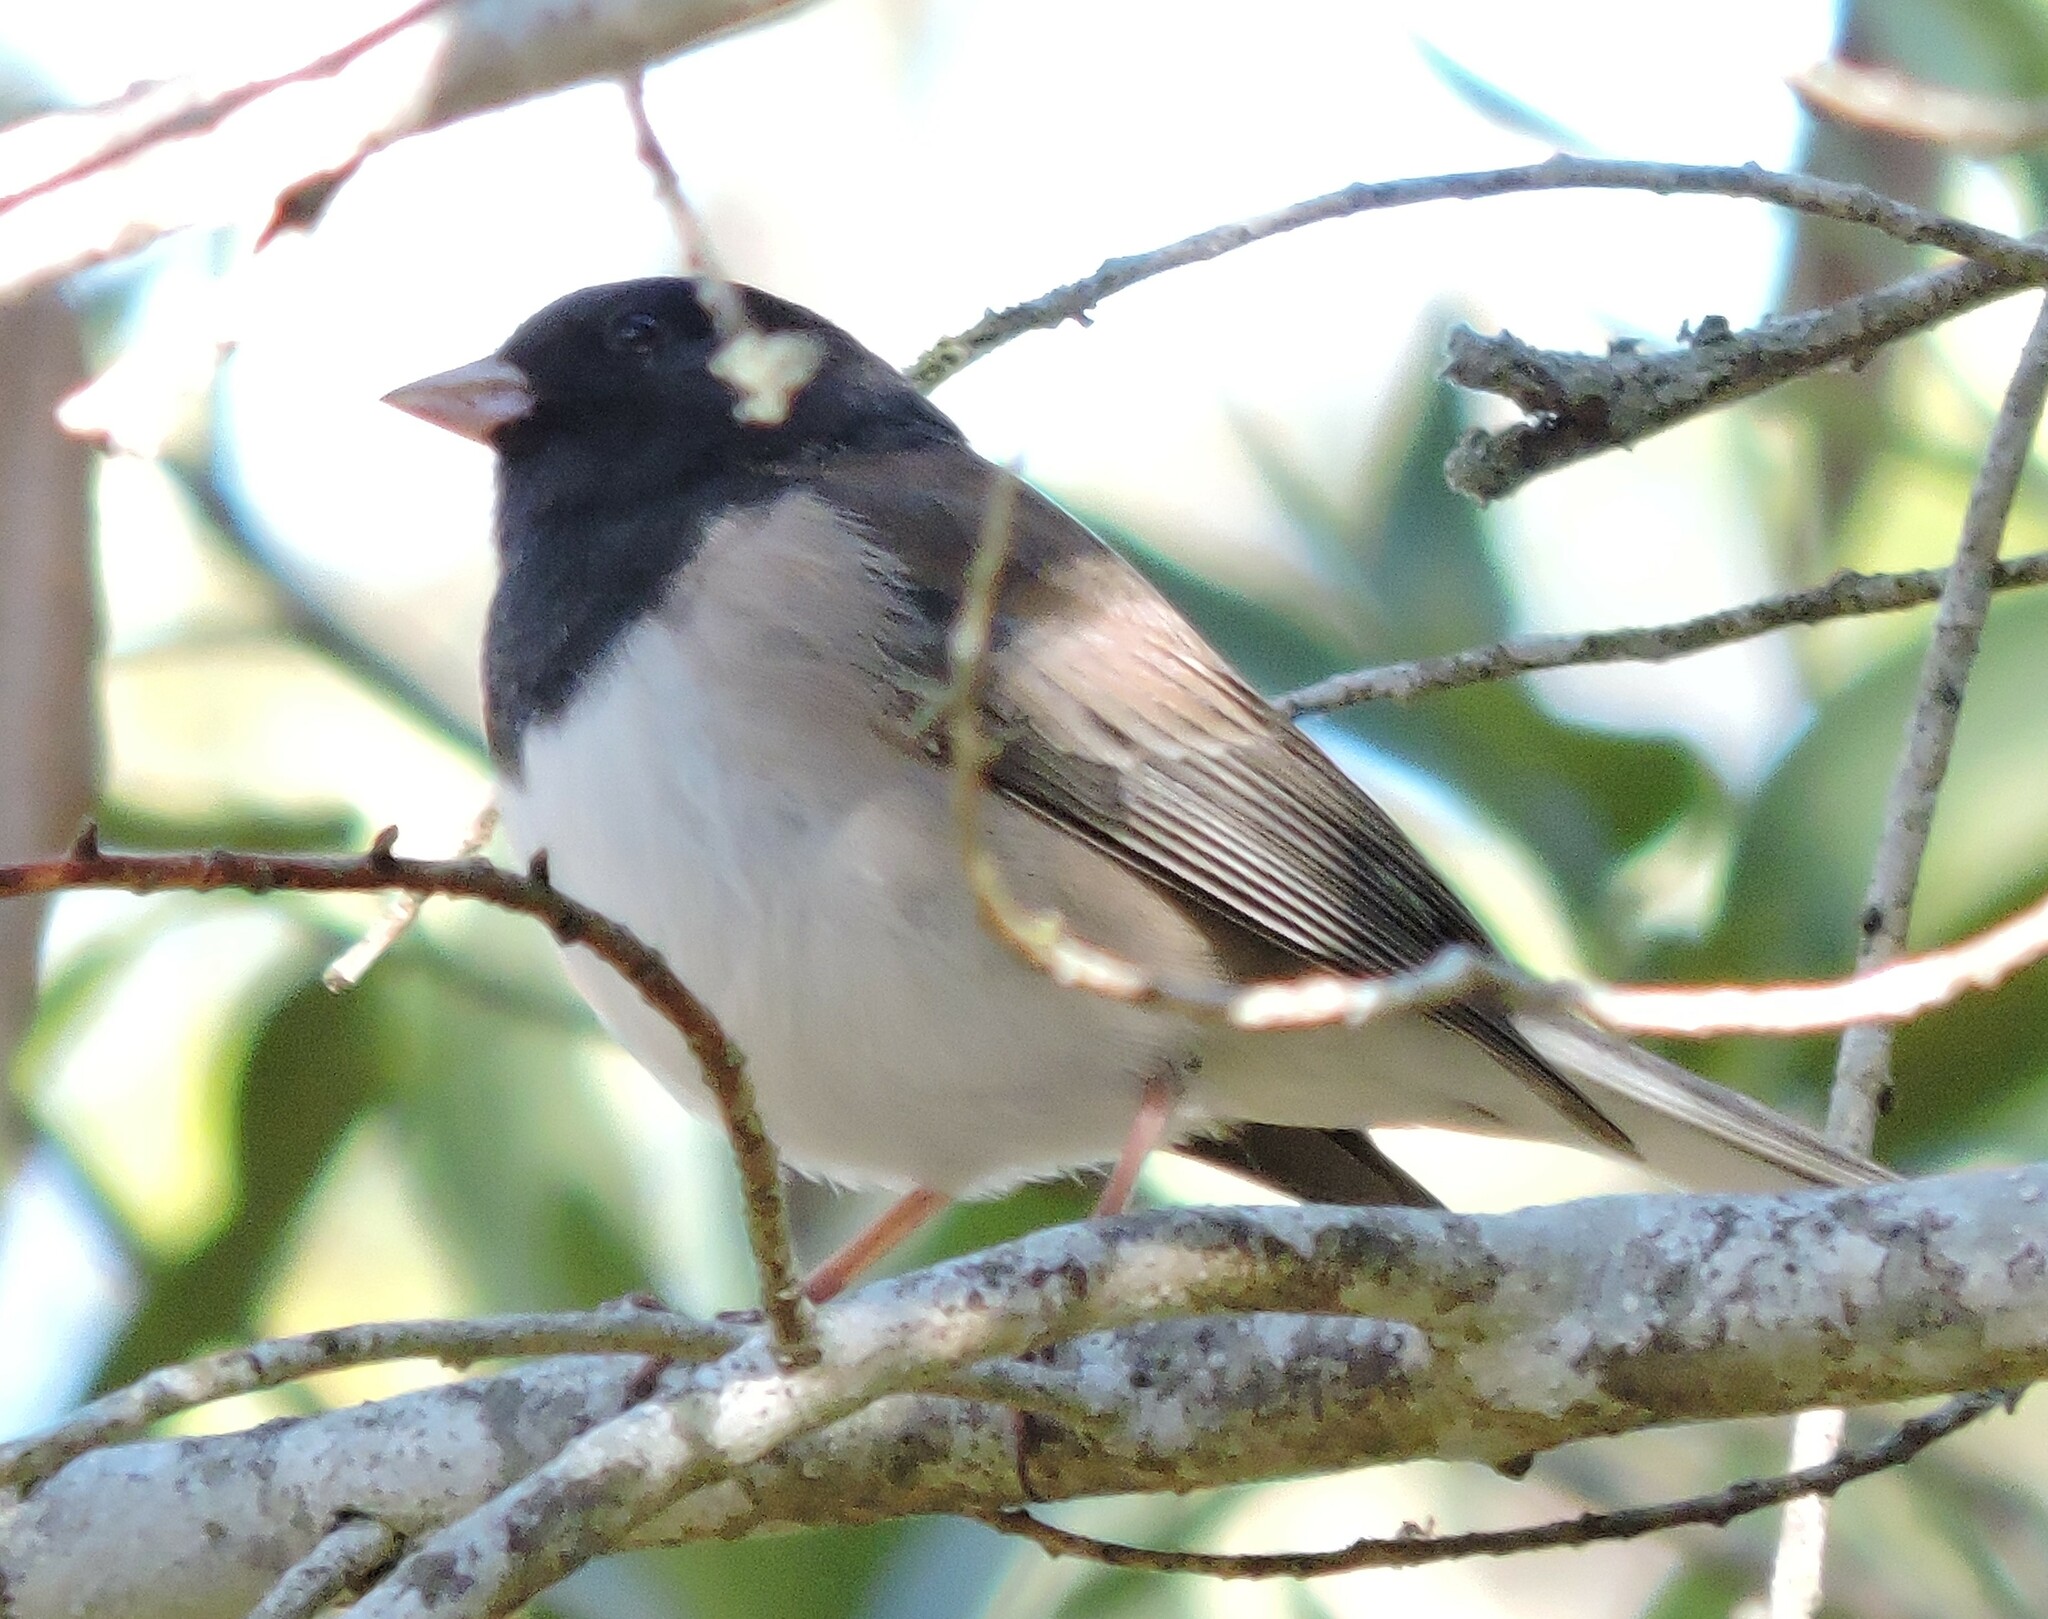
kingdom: Animalia
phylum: Chordata
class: Aves
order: Passeriformes
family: Passerellidae
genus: Junco
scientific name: Junco hyemalis
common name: Dark-eyed junco
